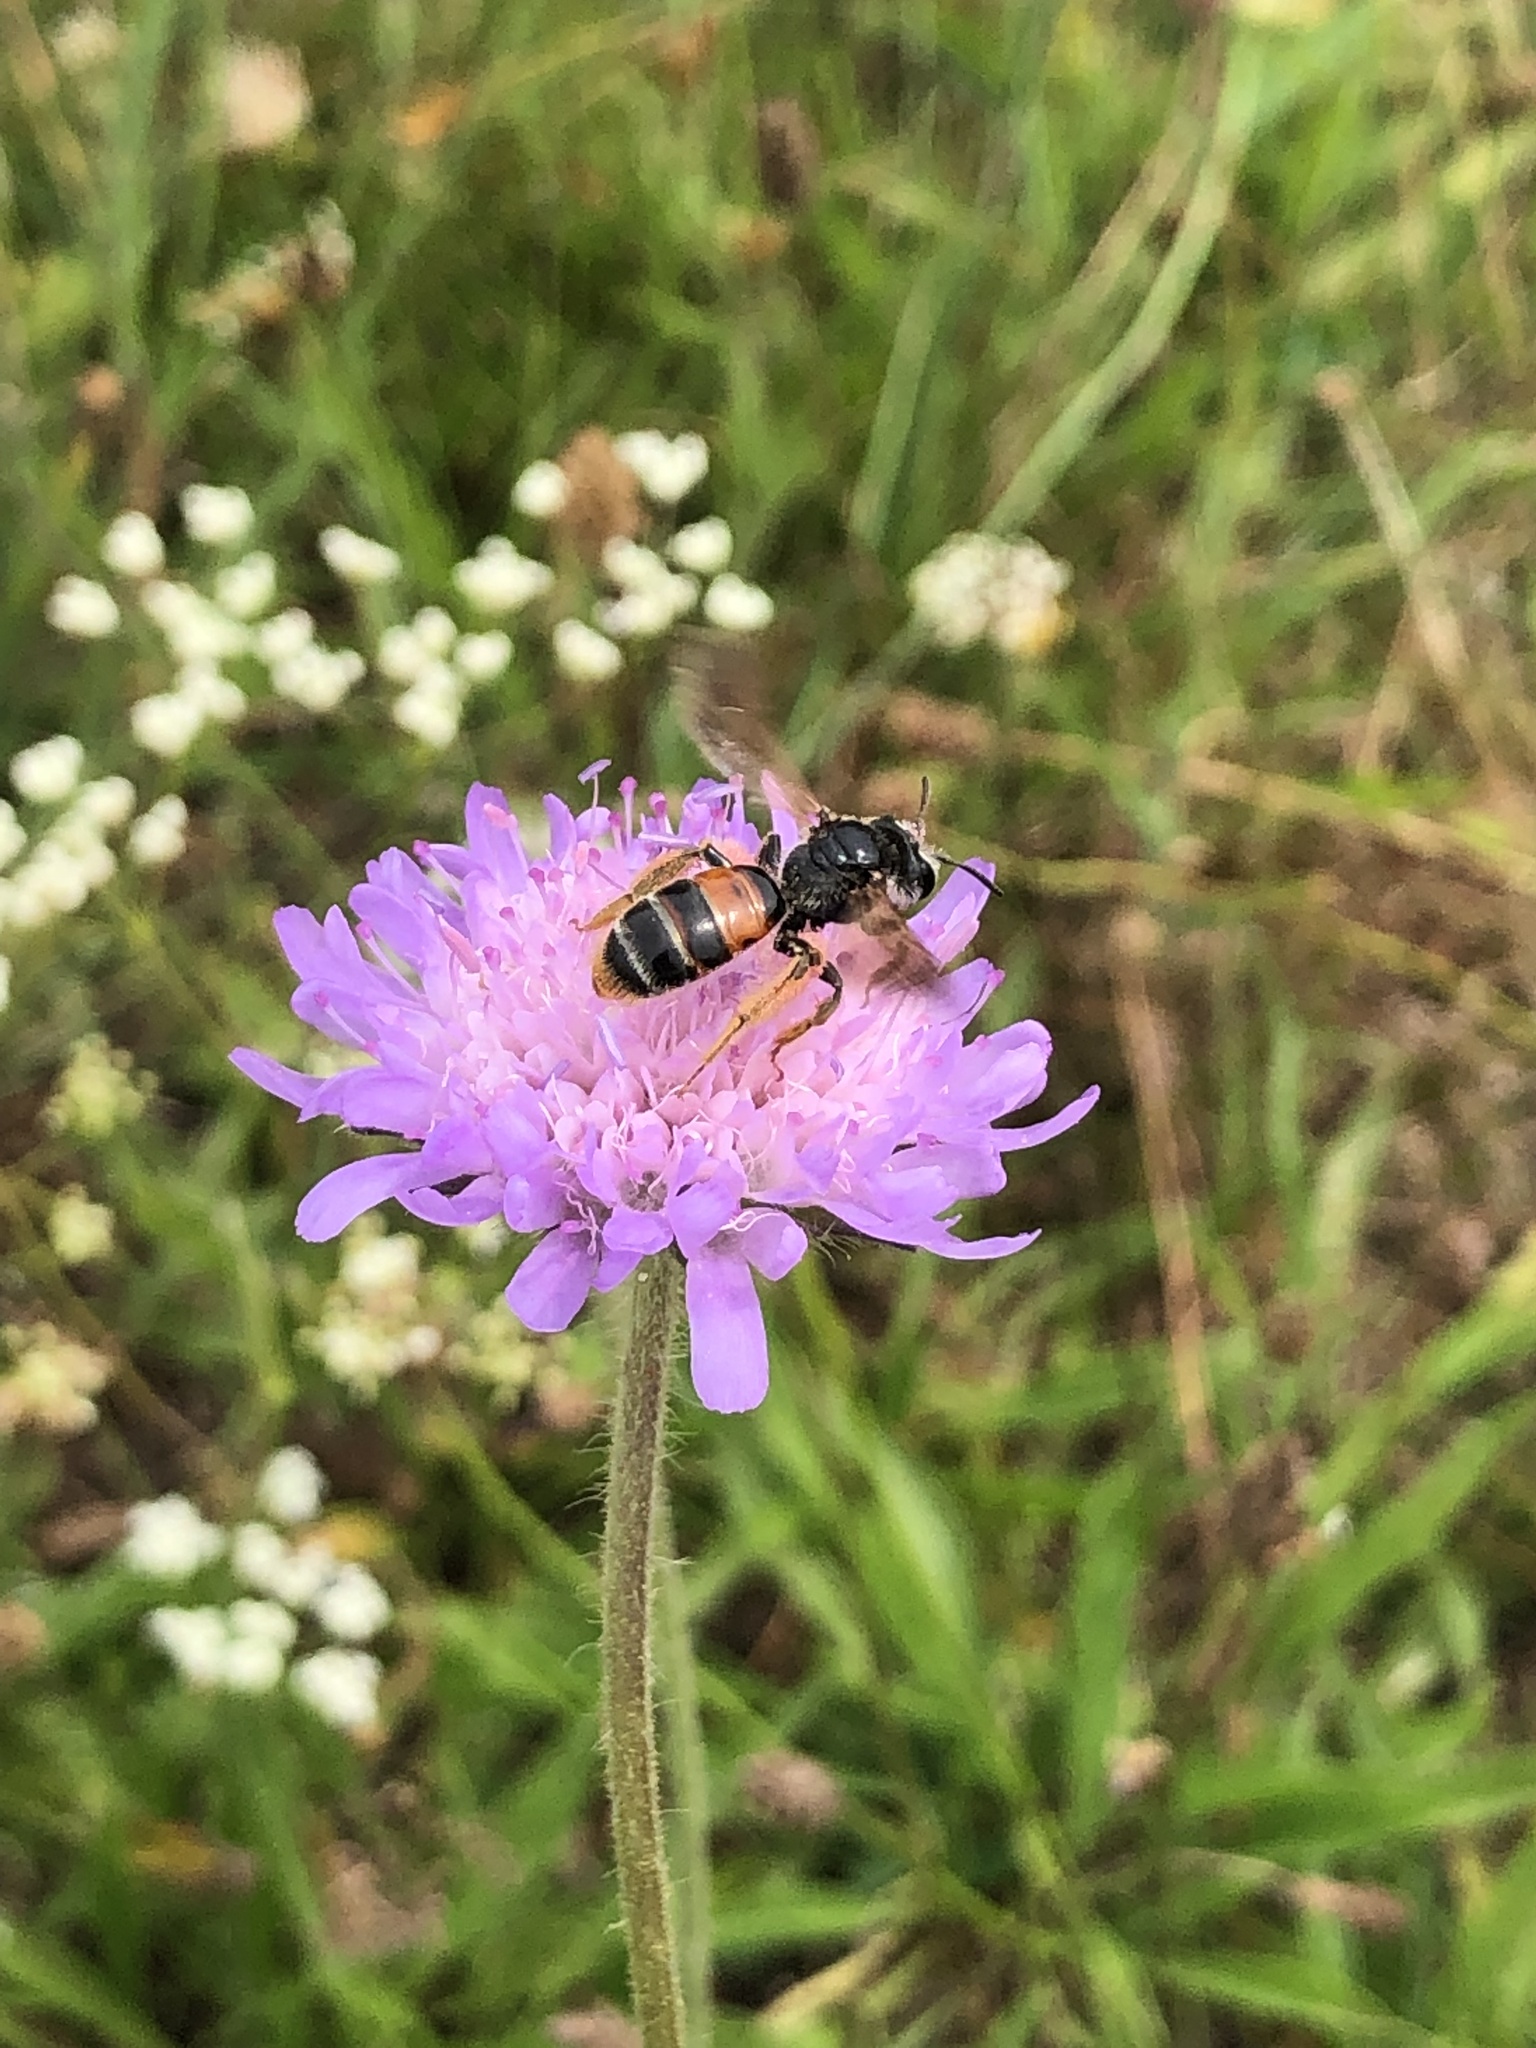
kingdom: Animalia
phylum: Arthropoda
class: Insecta
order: Hymenoptera
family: Andrenidae
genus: Andrena
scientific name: Andrena hattorfiana
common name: Large scabious mining bee
